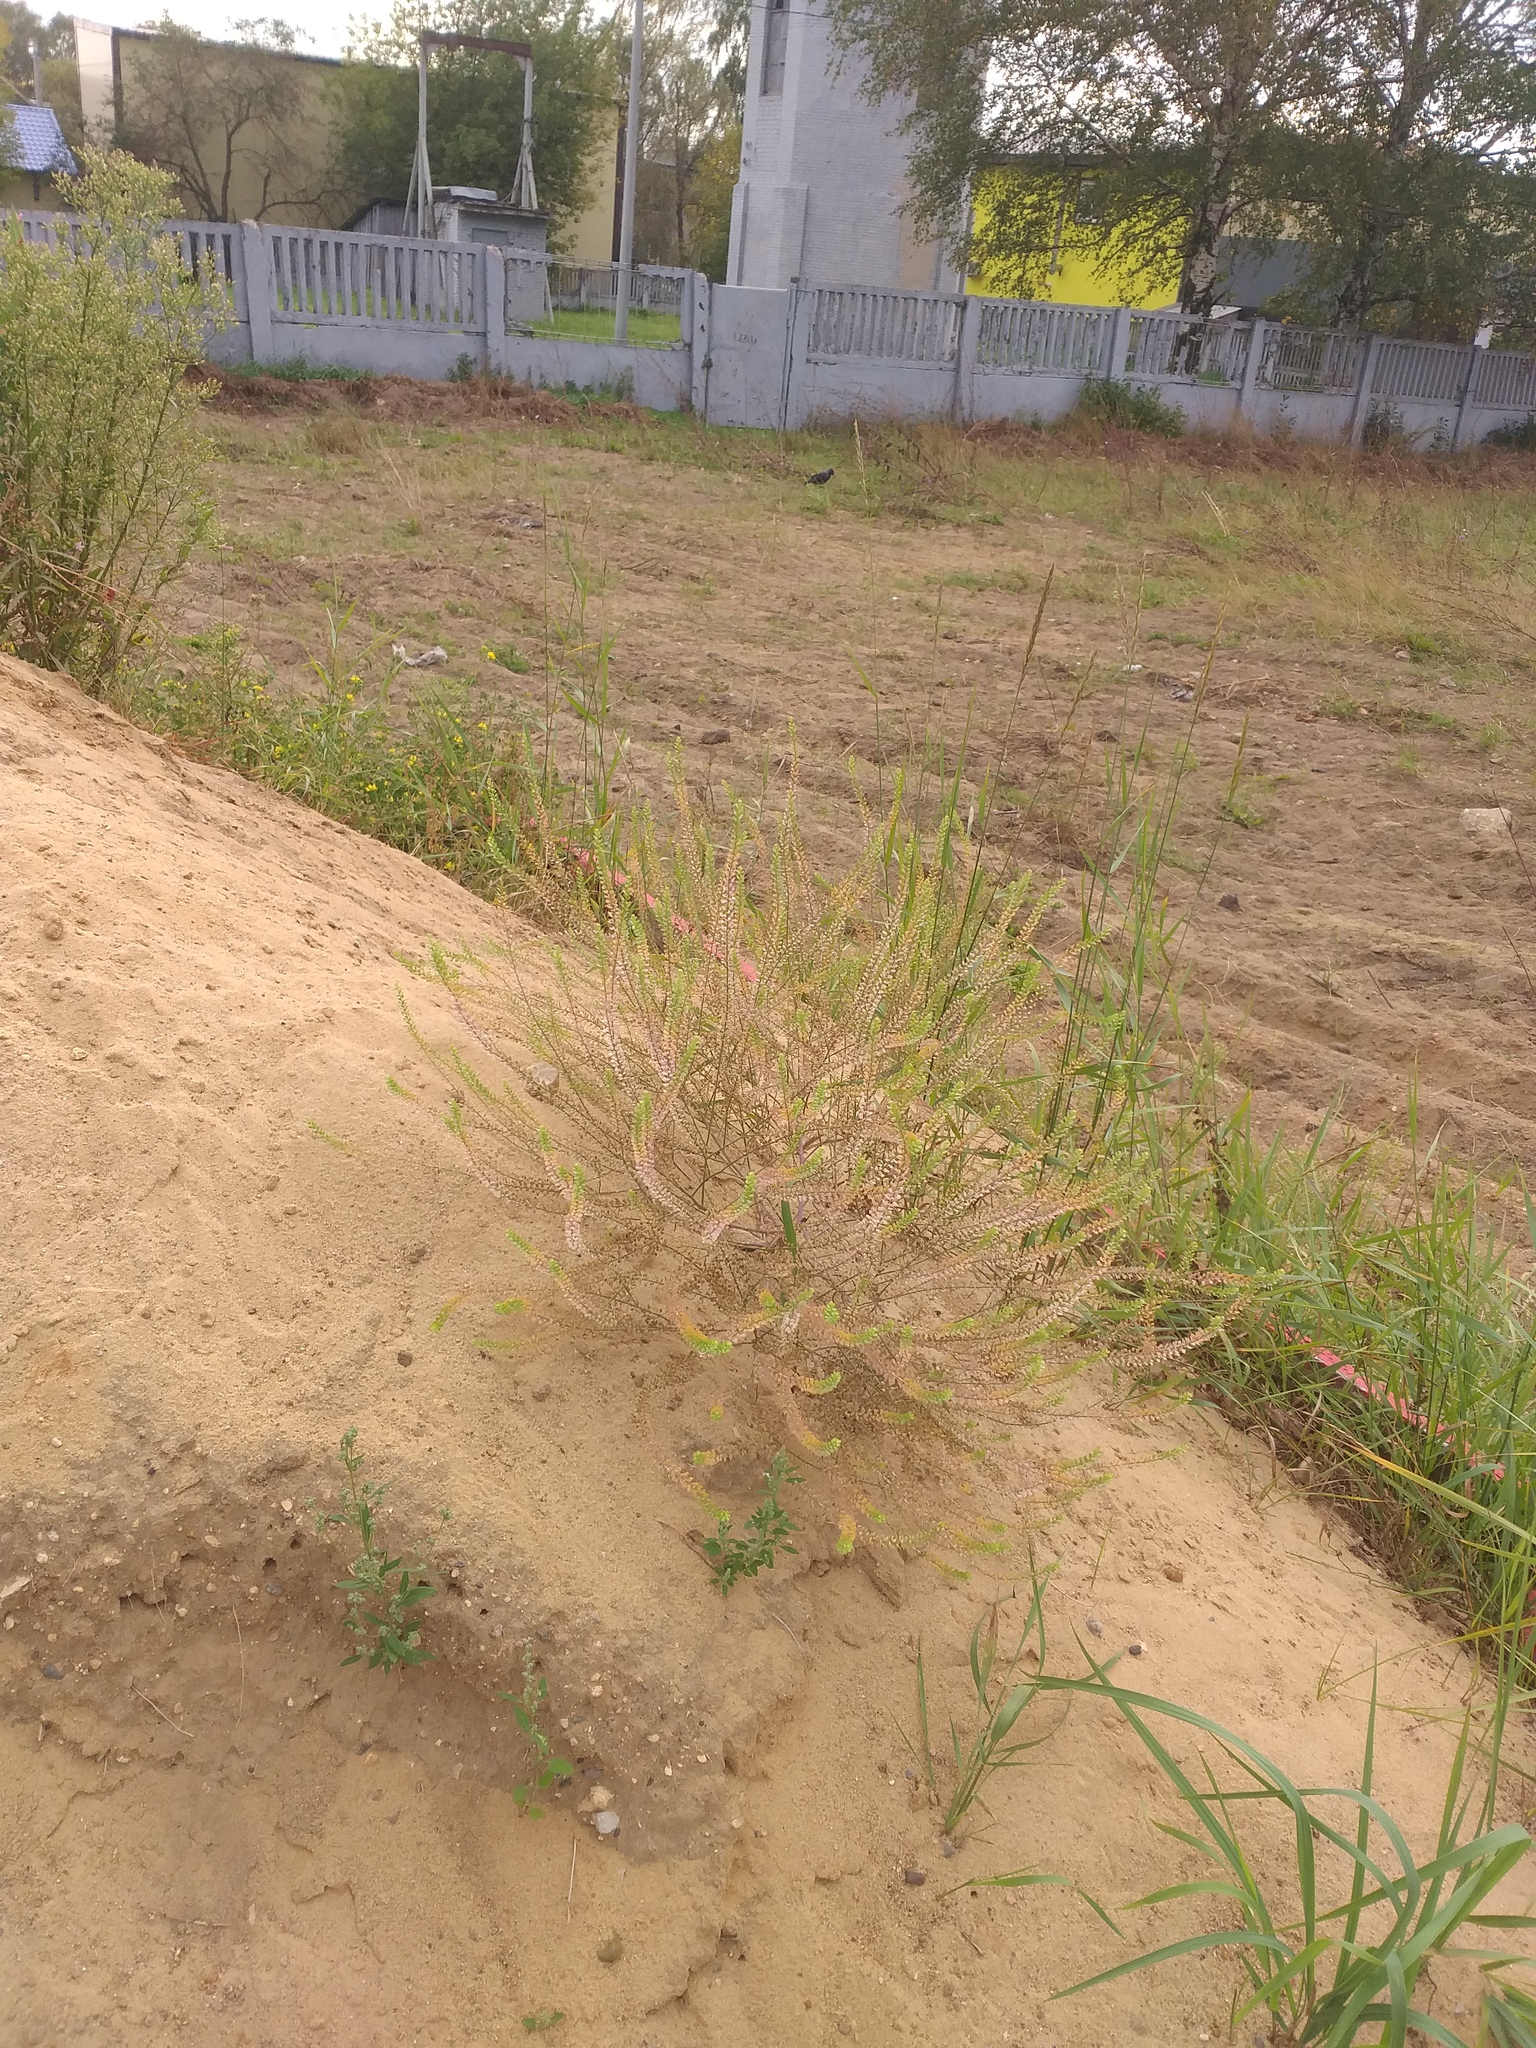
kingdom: Plantae
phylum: Tracheophyta
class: Magnoliopsida
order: Brassicales
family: Brassicaceae
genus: Lepidium
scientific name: Lepidium densiflorum
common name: Miner's pepperwort
